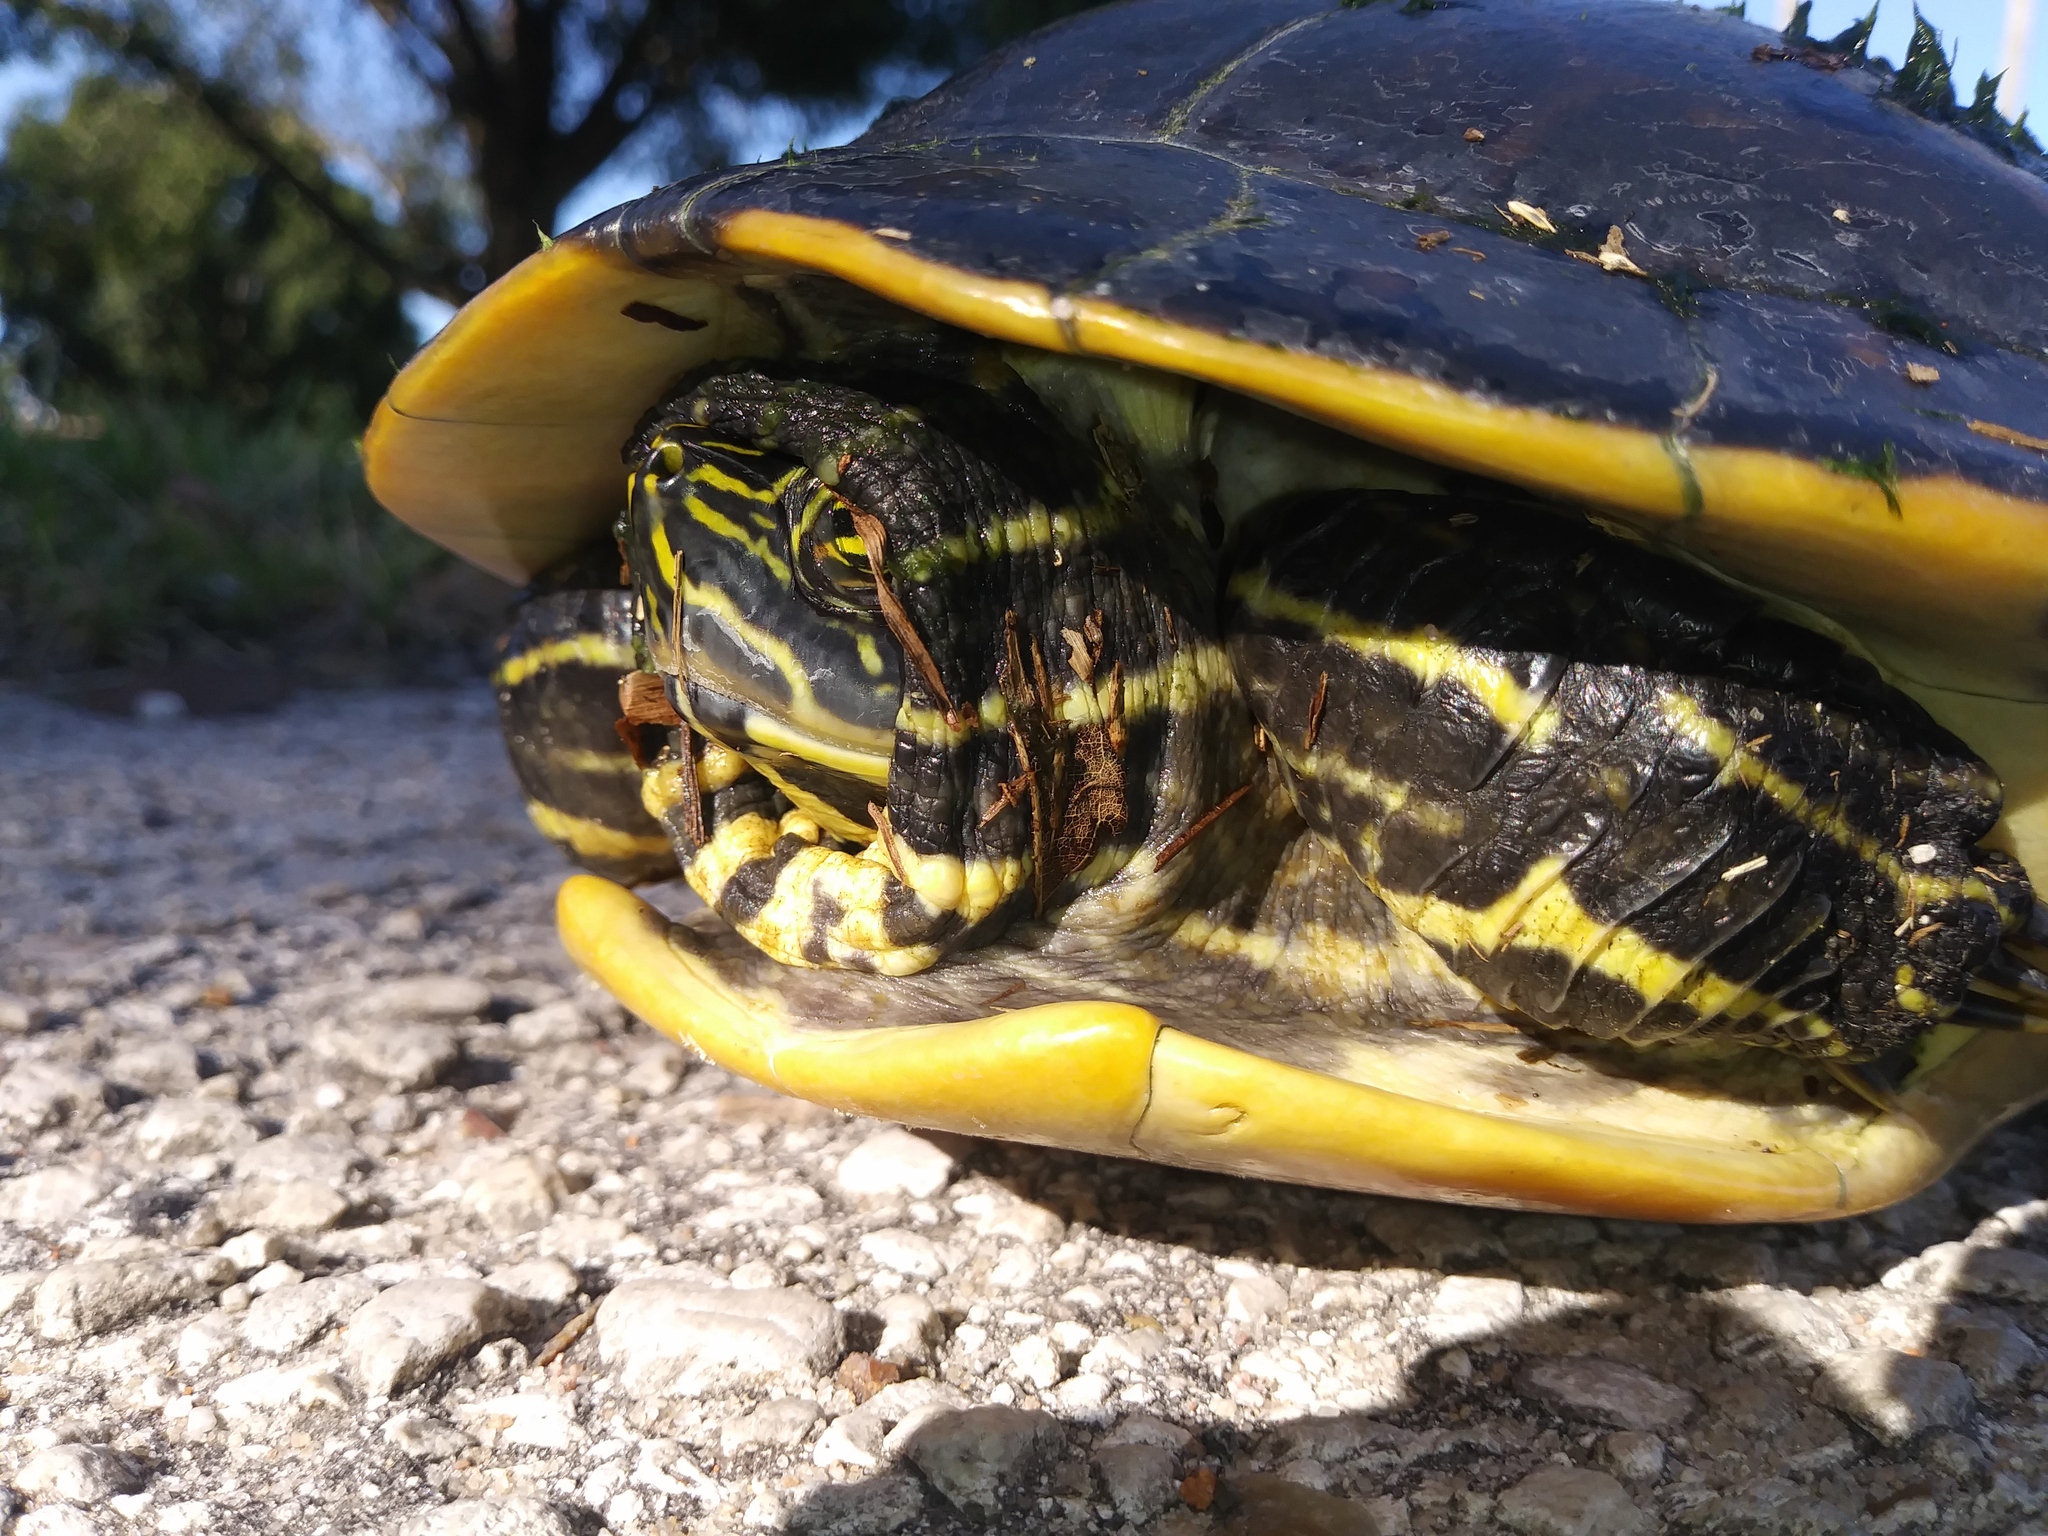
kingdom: Animalia
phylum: Chordata
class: Testudines
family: Emydidae
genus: Pseudemys
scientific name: Pseudemys peninsularis
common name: Peninsula cooter
